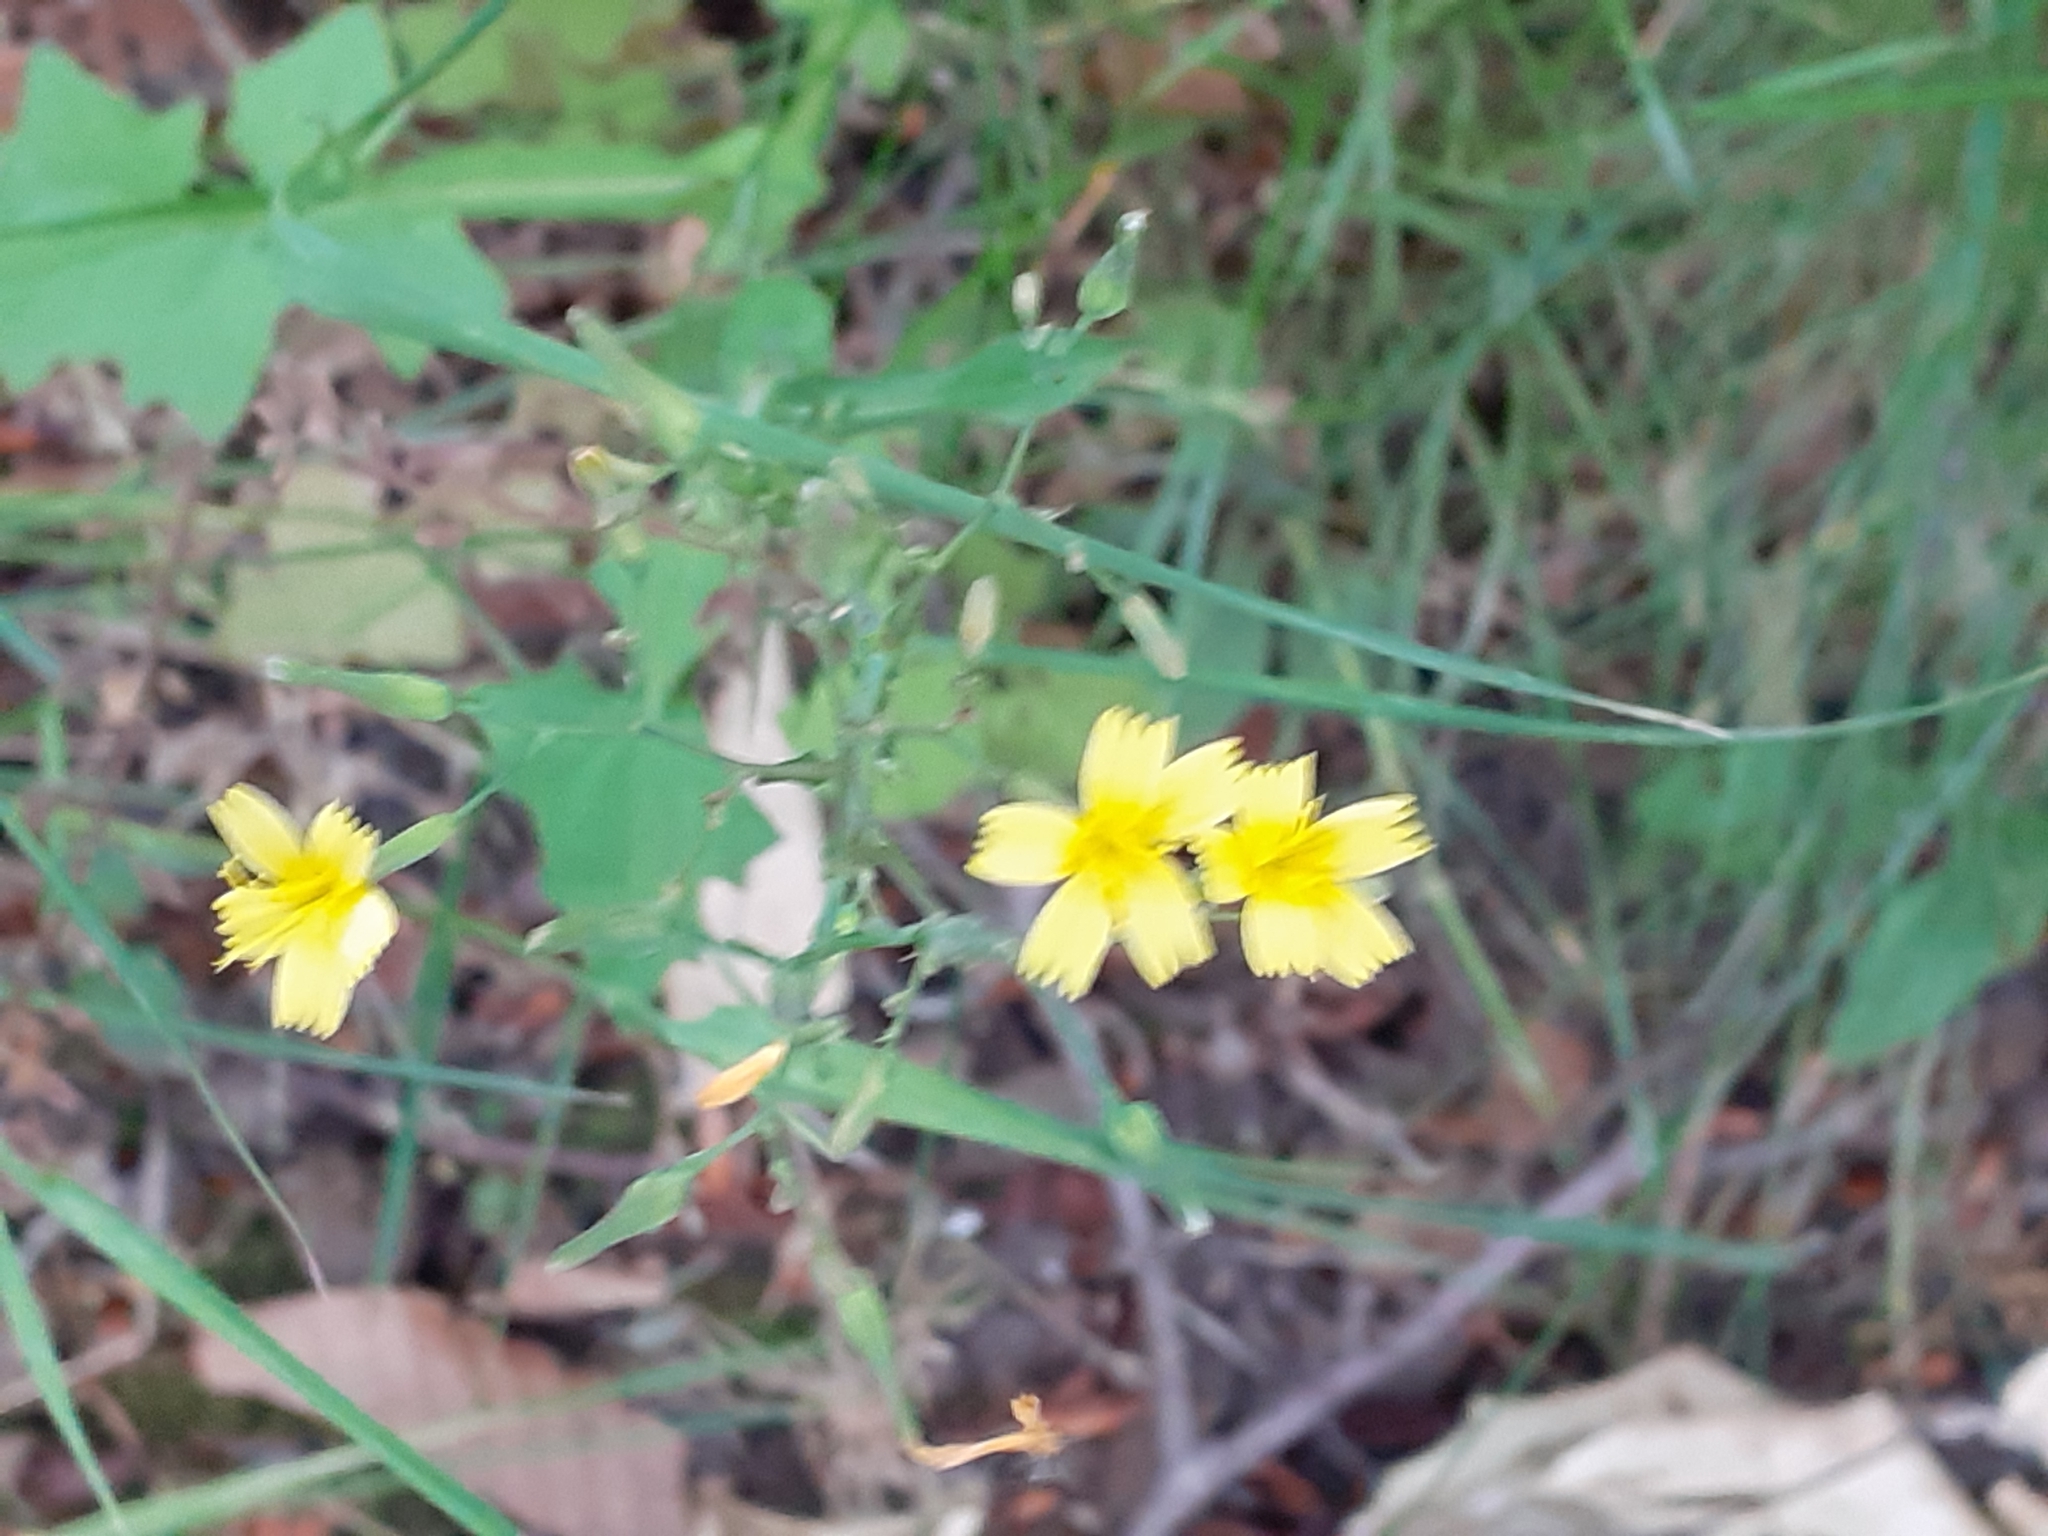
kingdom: Plantae
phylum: Tracheophyta
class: Magnoliopsida
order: Asterales
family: Asteraceae
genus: Mycelis
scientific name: Mycelis muralis
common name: Wall lettuce
